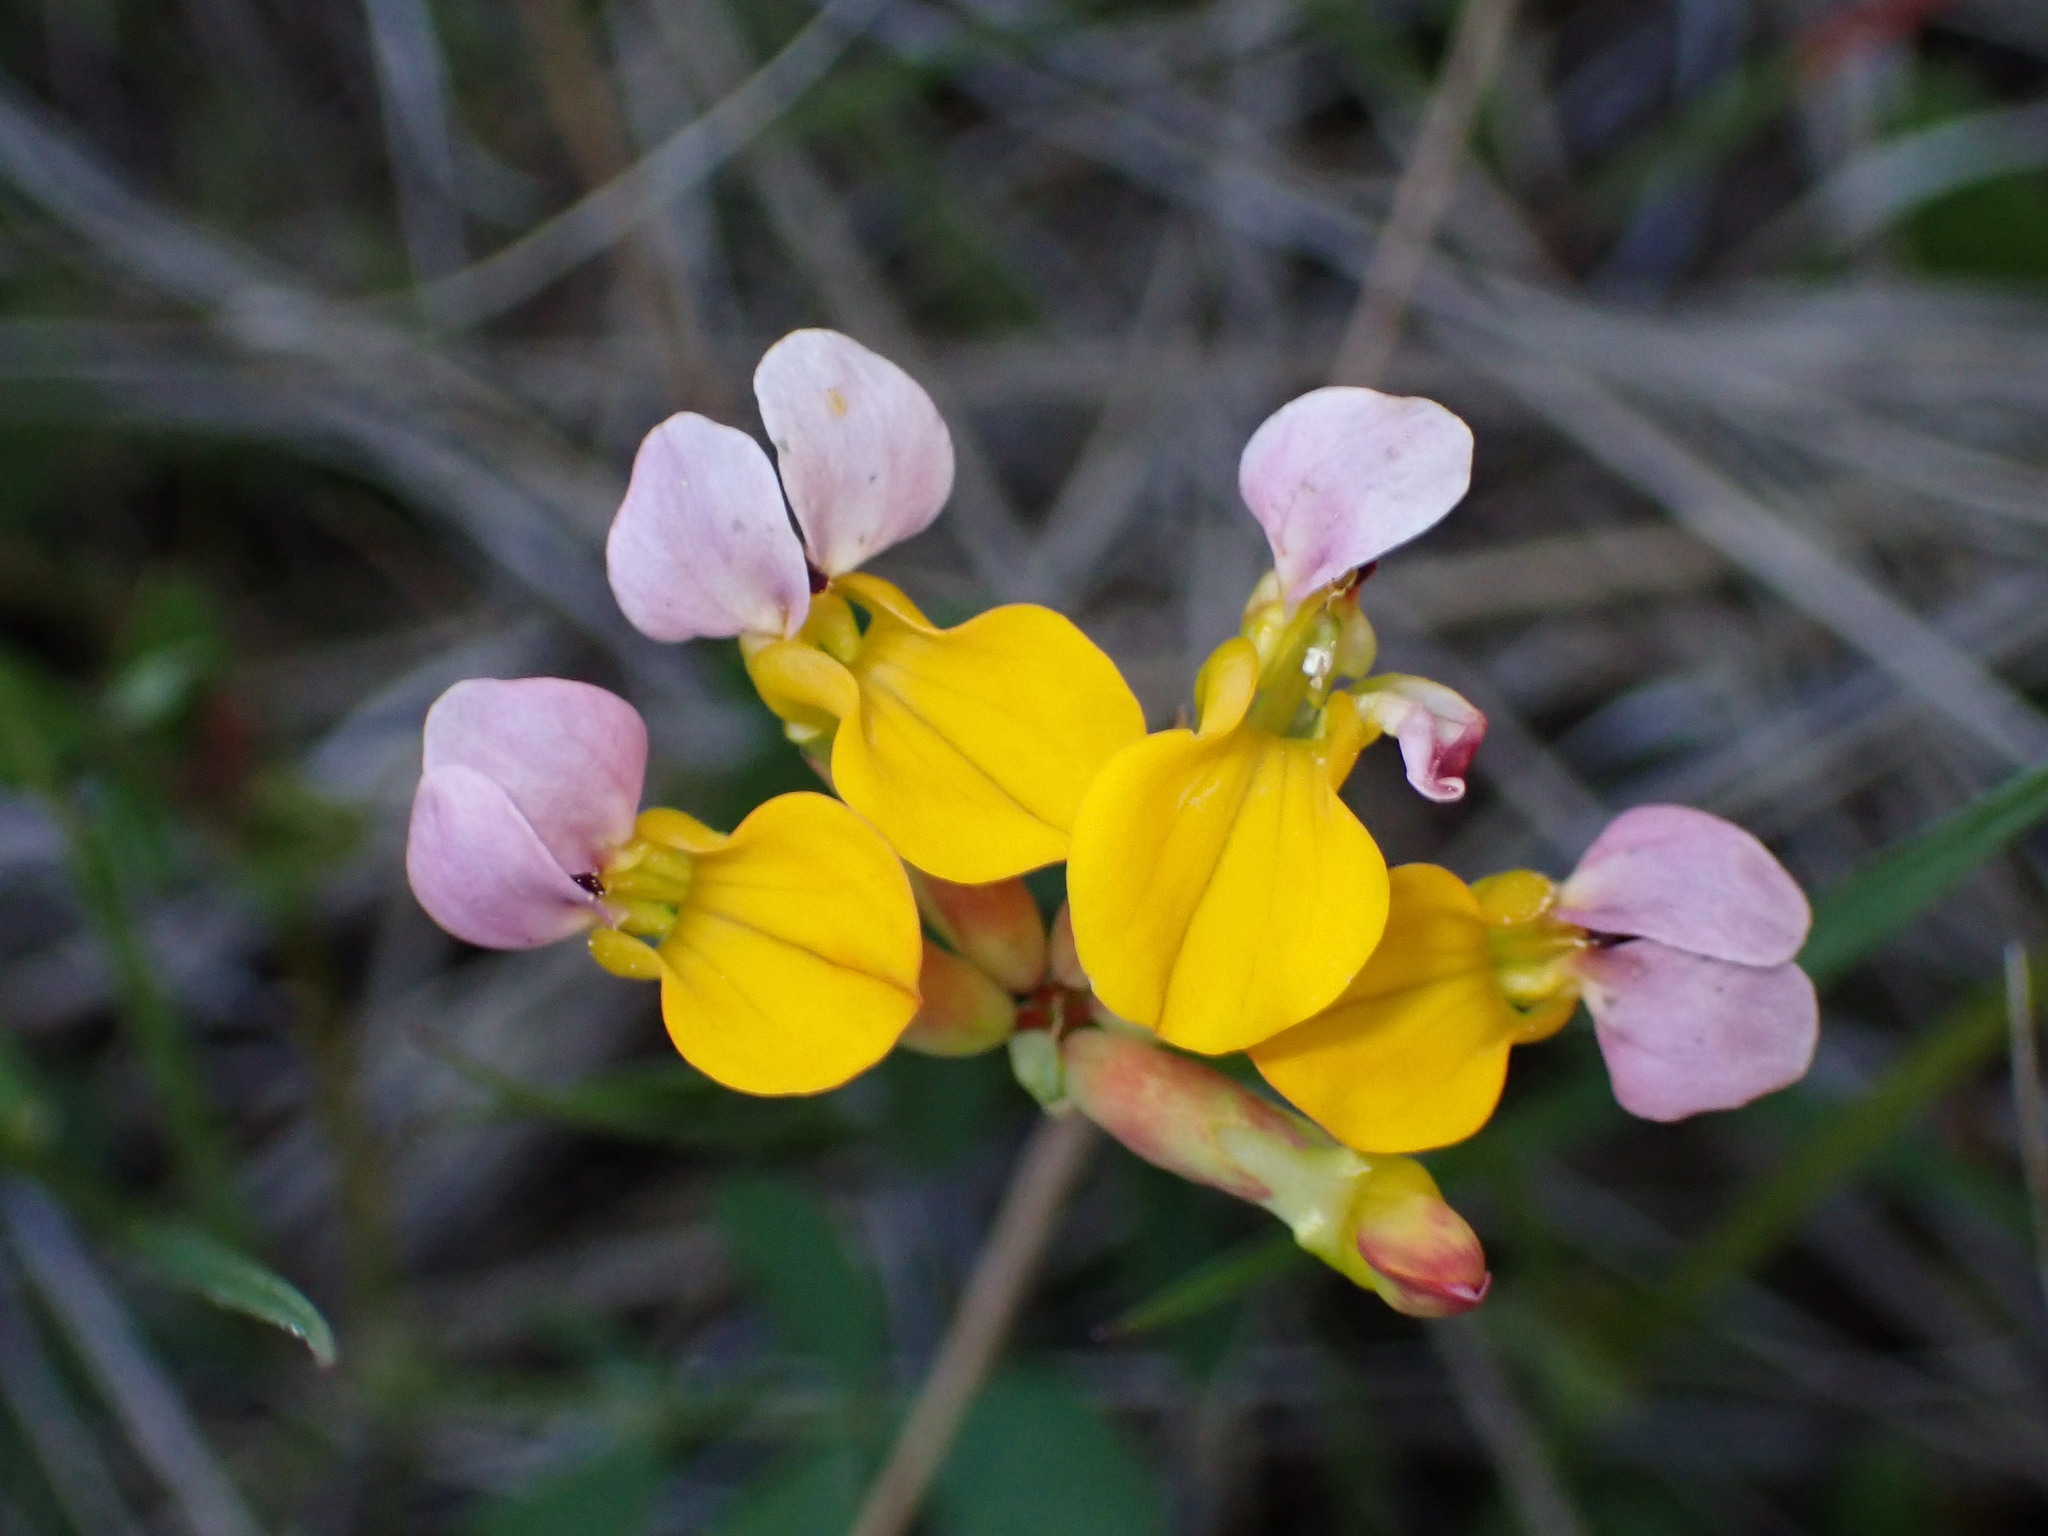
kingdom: Plantae
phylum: Tracheophyta
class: Magnoliopsida
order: Fabales
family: Fabaceae
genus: Hosackia
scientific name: Hosackia gracilis
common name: Seaside bird's-foot lotus
